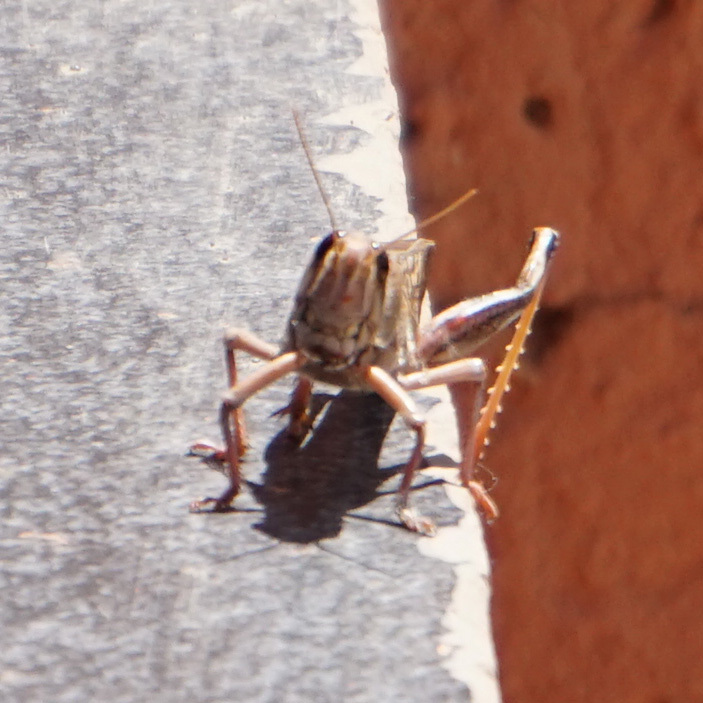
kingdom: Animalia
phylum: Arthropoda
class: Insecta
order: Orthoptera
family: Acrididae
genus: Schistocerca
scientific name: Schistocerca gregaria
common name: Desert locust
